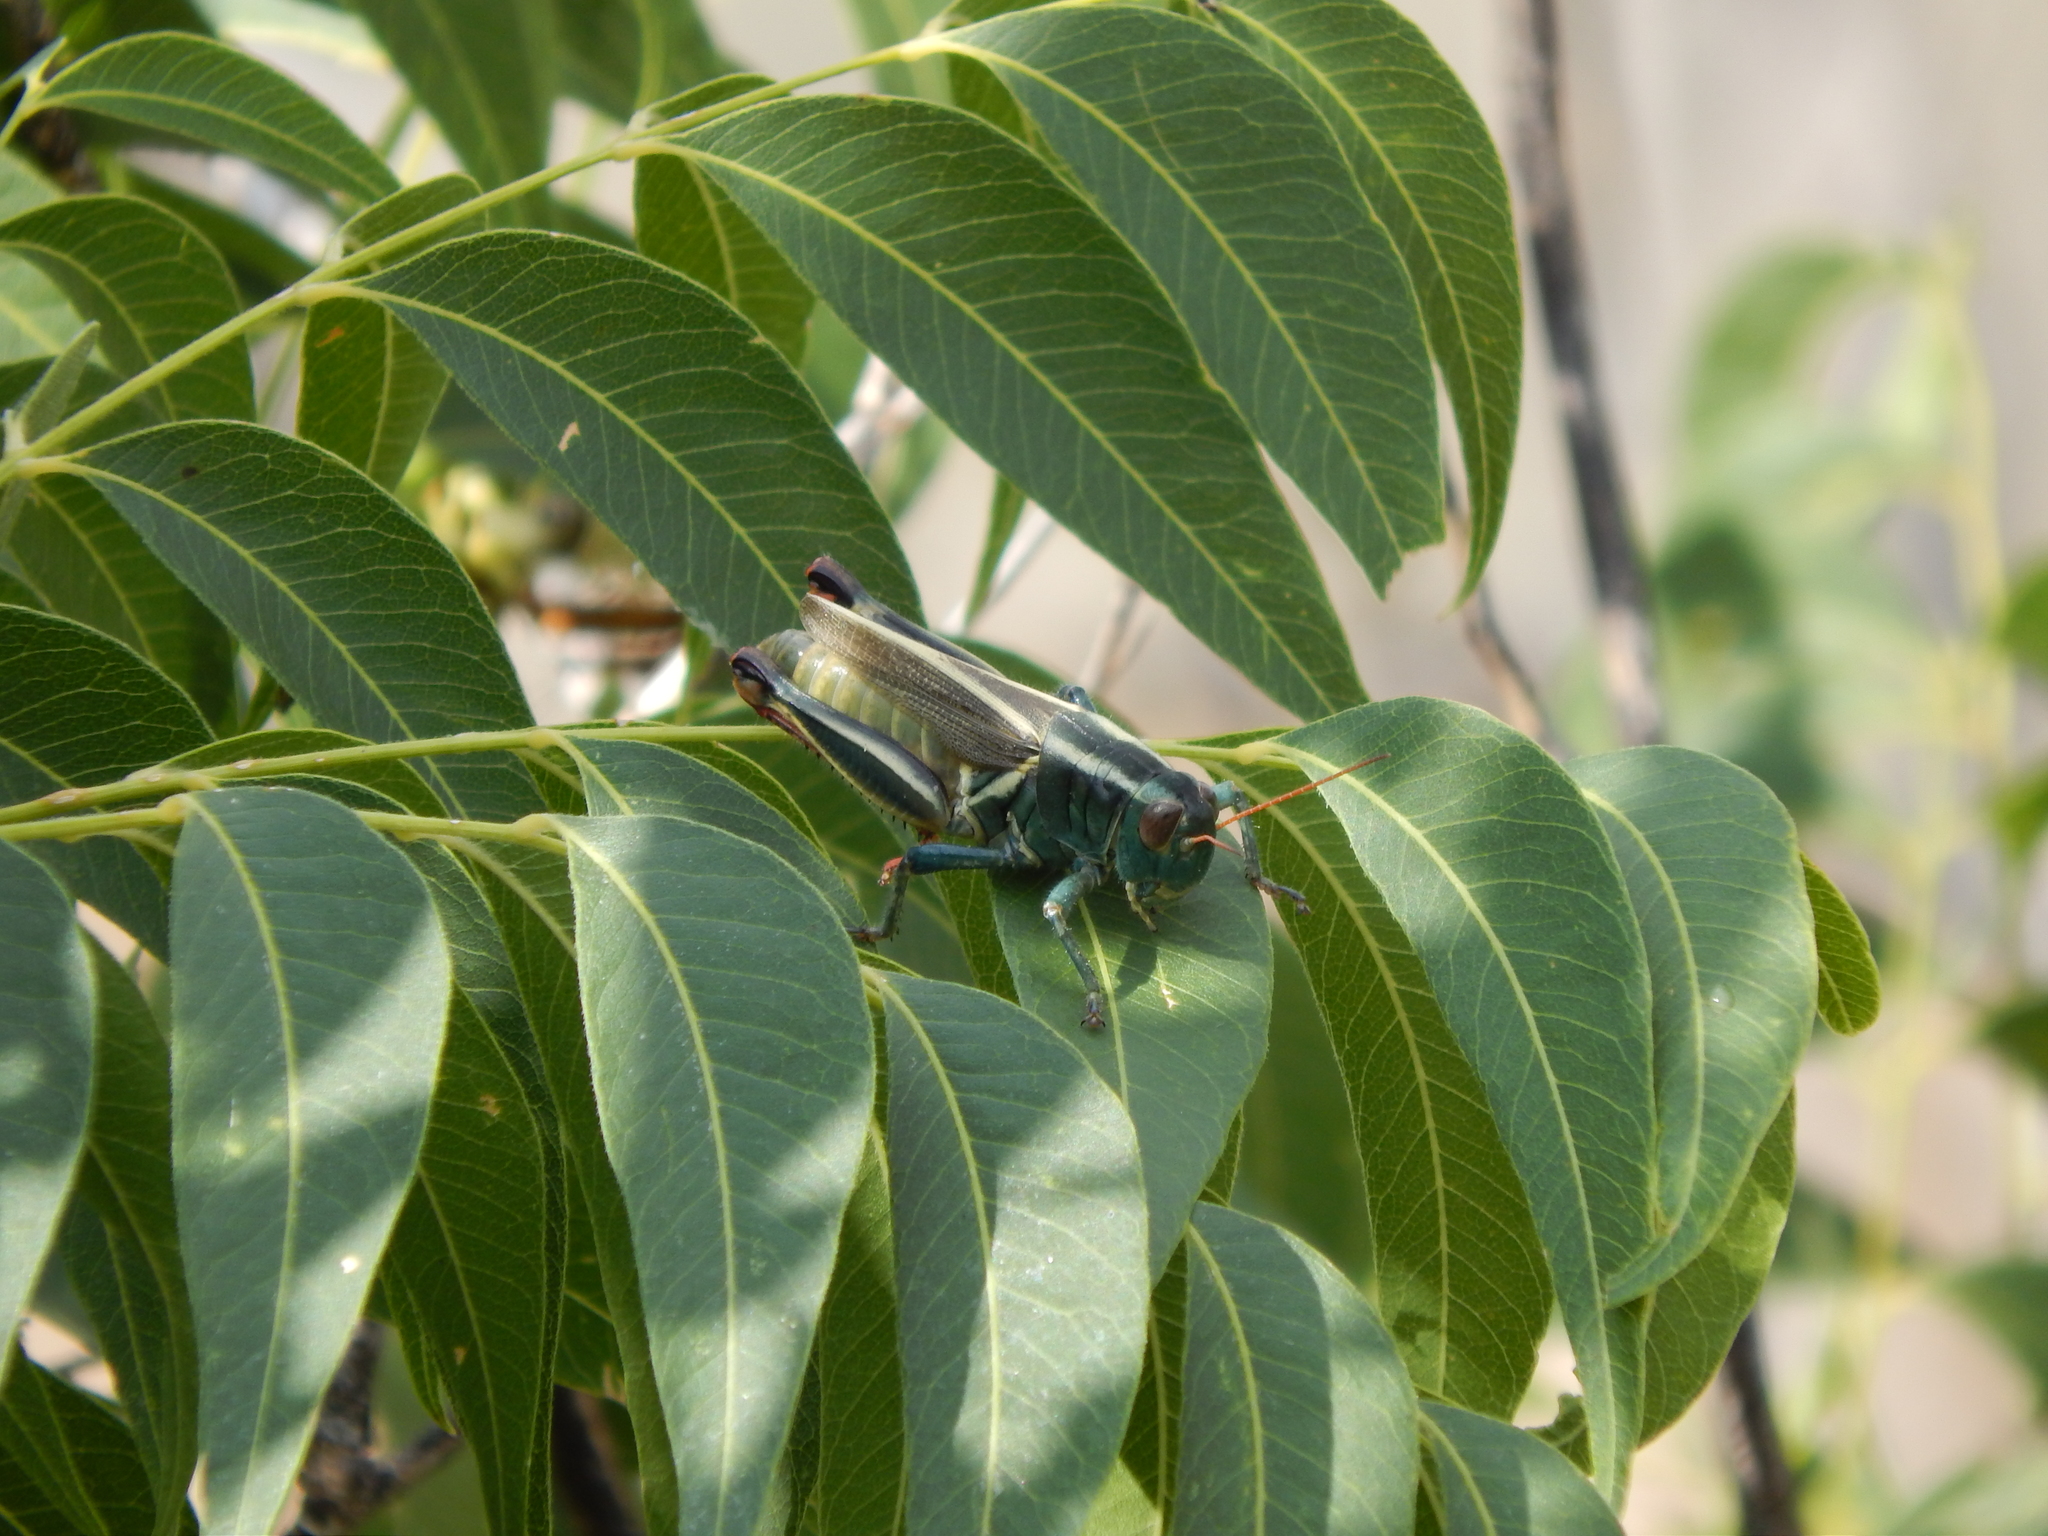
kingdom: Animalia
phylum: Arthropoda
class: Insecta
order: Orthoptera
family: Acrididae
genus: Melanoplus
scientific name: Melanoplus thomasi
